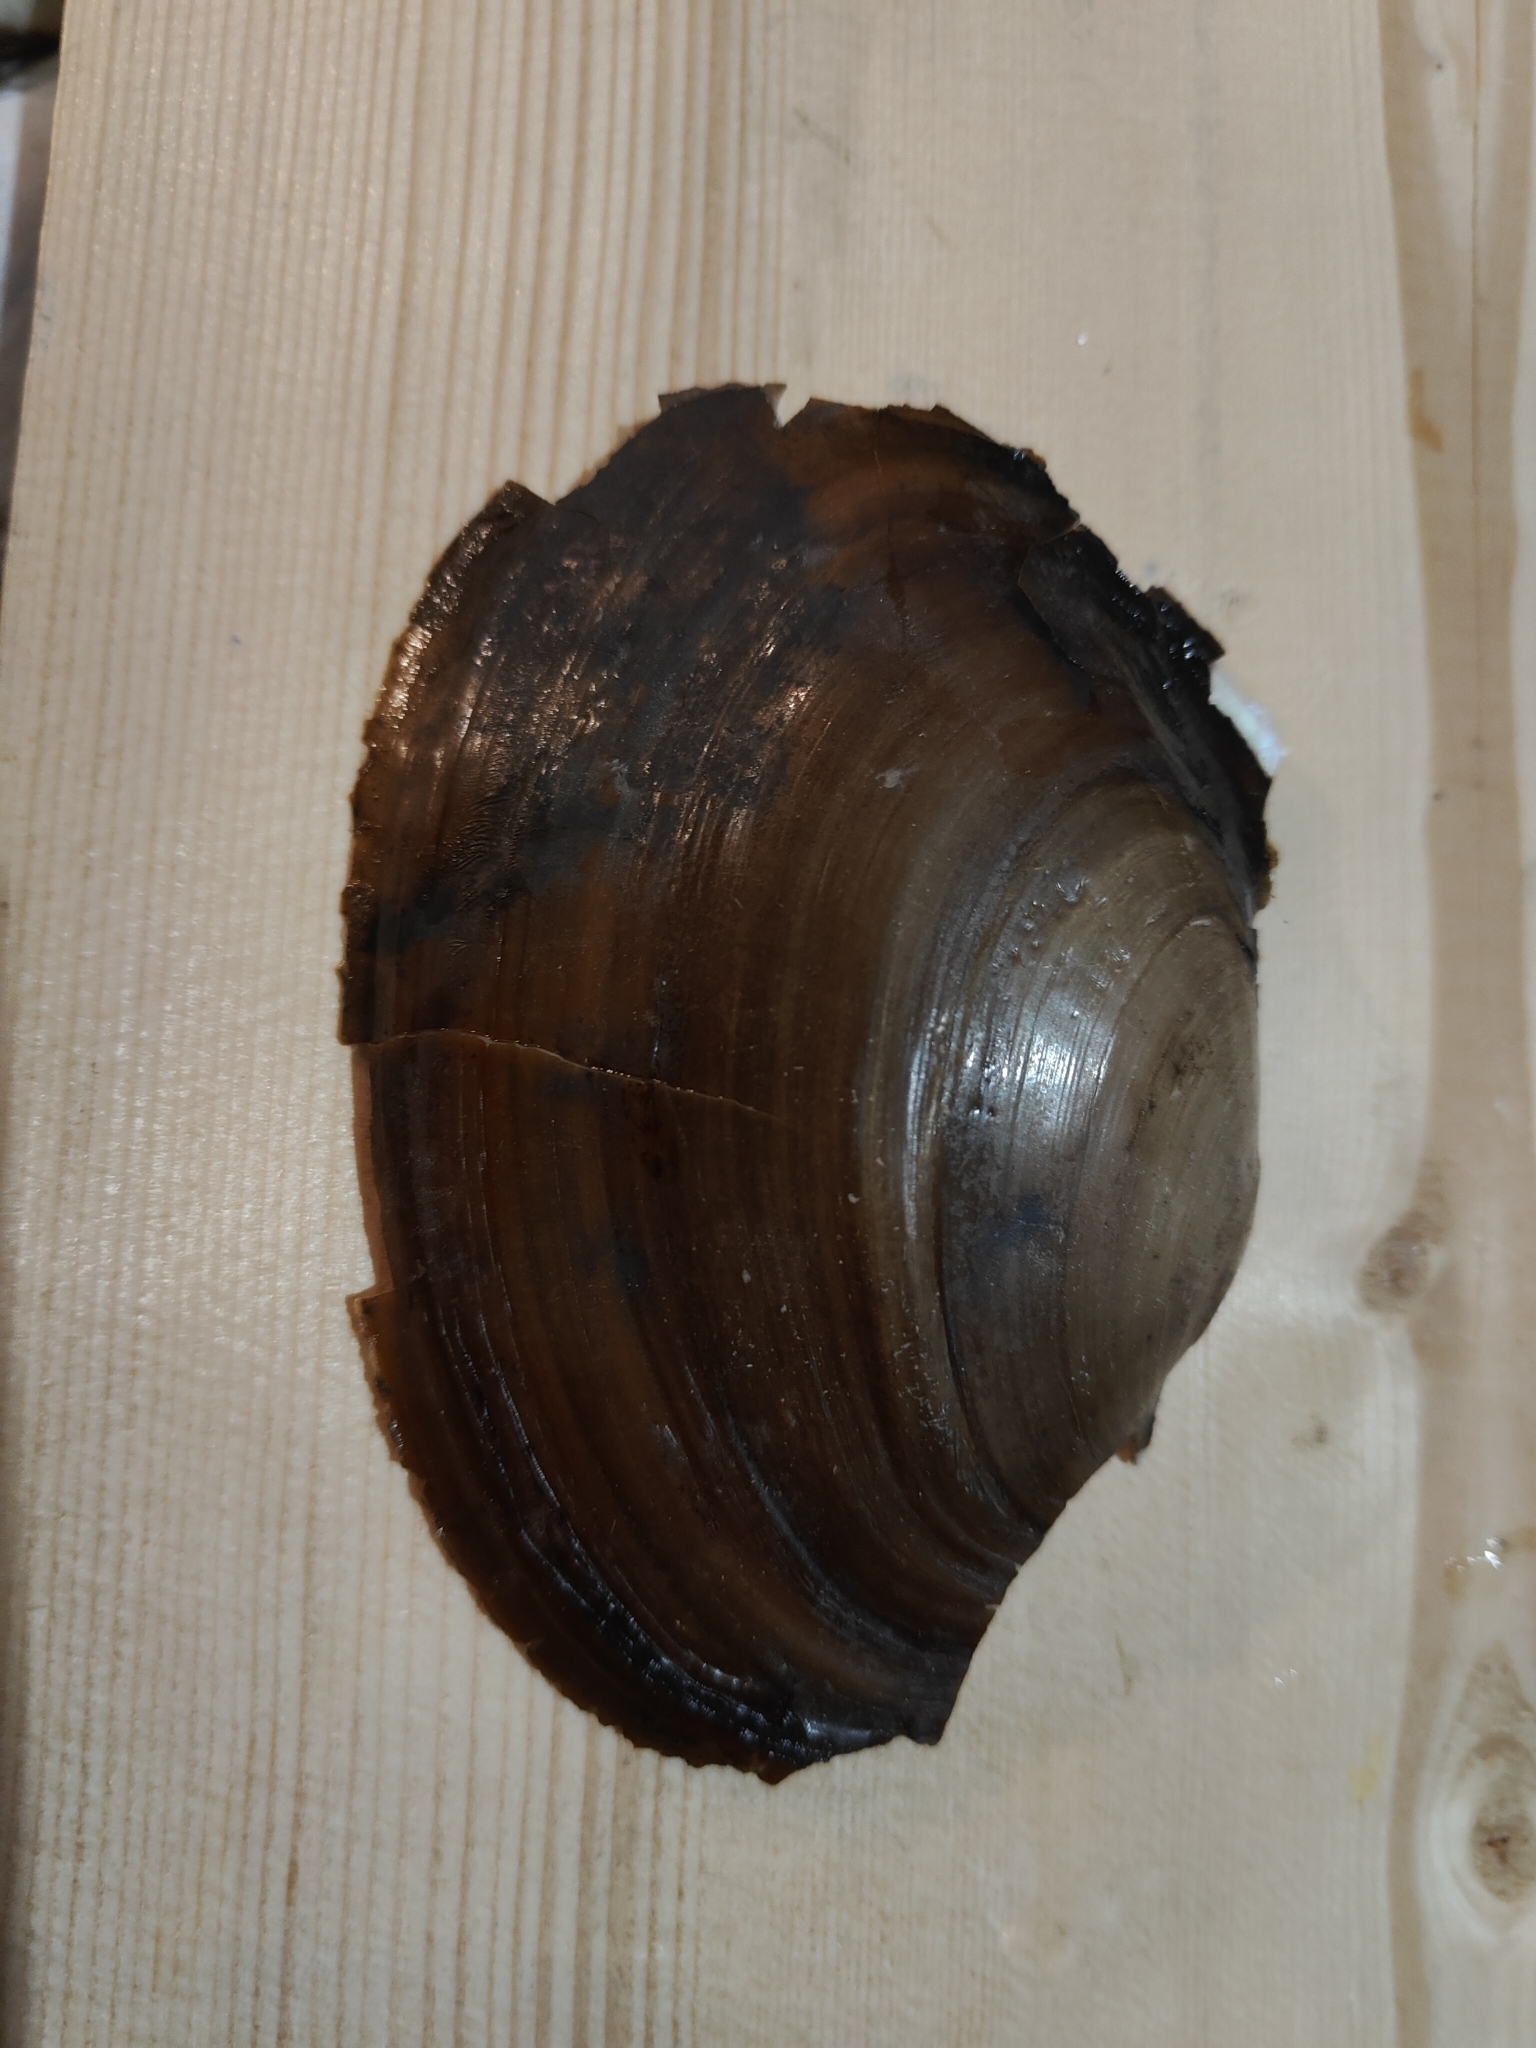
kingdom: Animalia
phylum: Mollusca
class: Bivalvia
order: Unionida
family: Unionidae
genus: Potamilus
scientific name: Potamilus ohiensis
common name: Pink papershell
